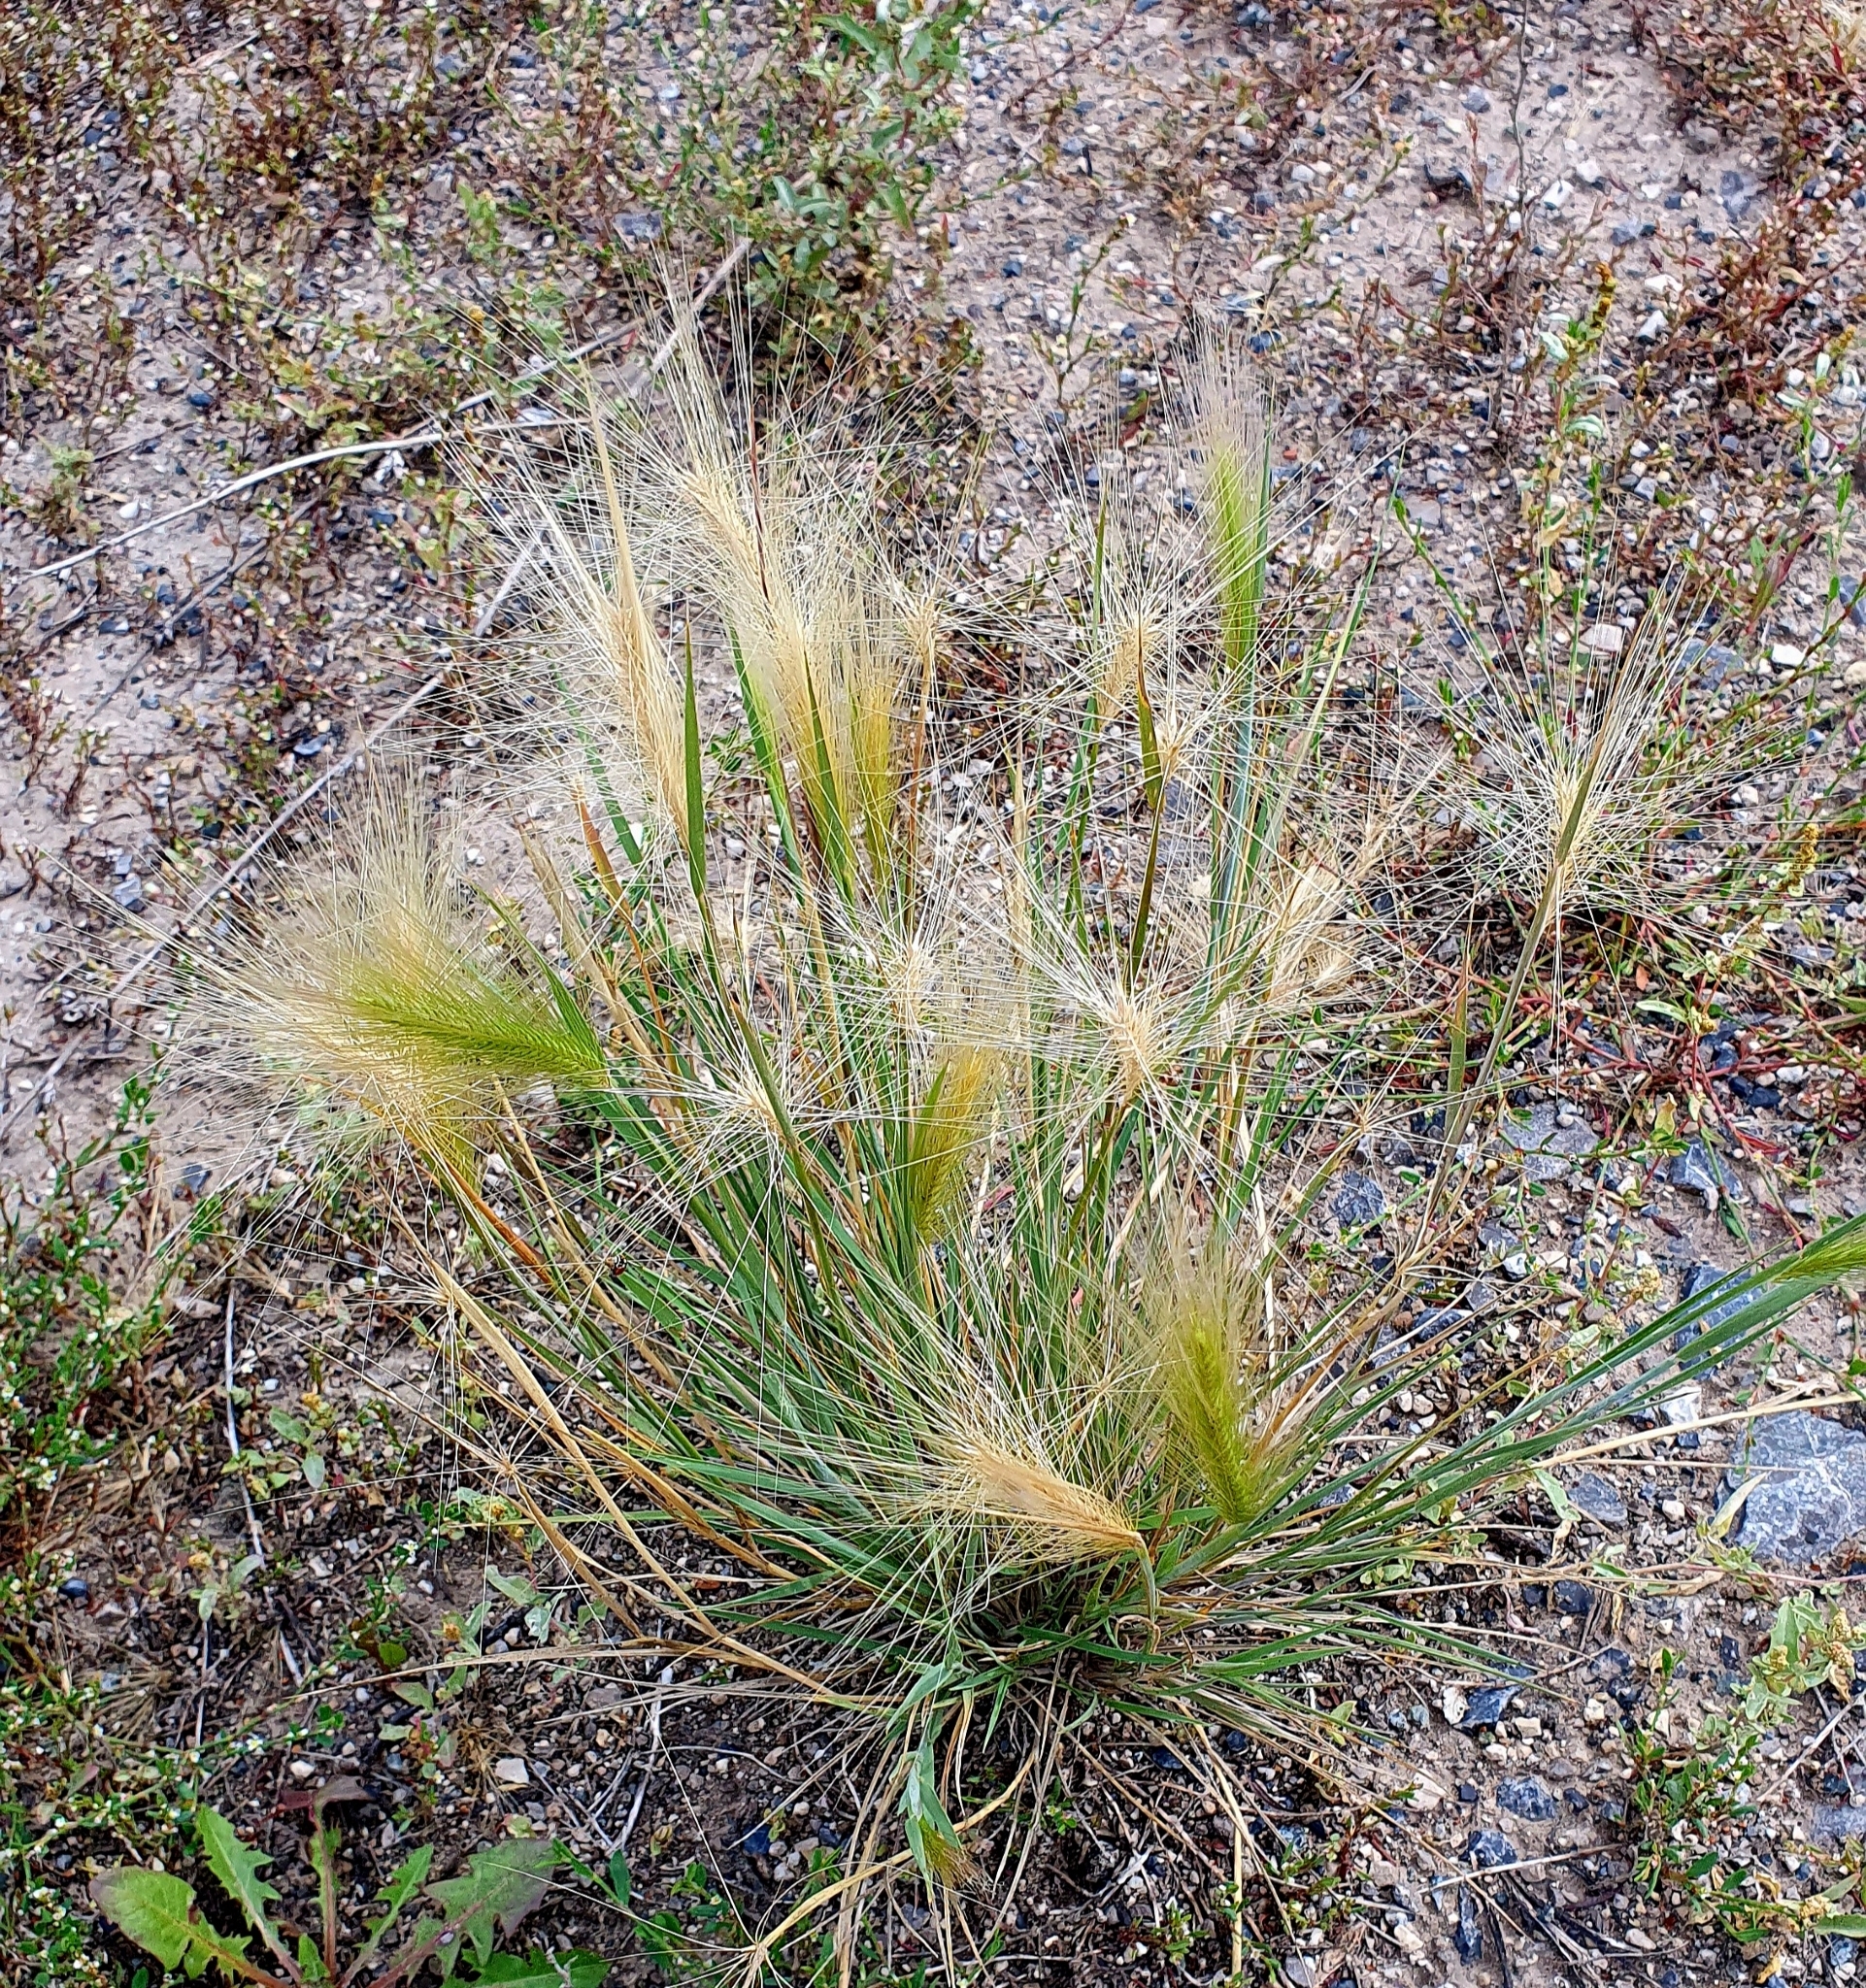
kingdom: Plantae
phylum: Tracheophyta
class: Liliopsida
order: Poales
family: Poaceae
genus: Hordeum
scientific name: Hordeum jubatum
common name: Foxtail barley
